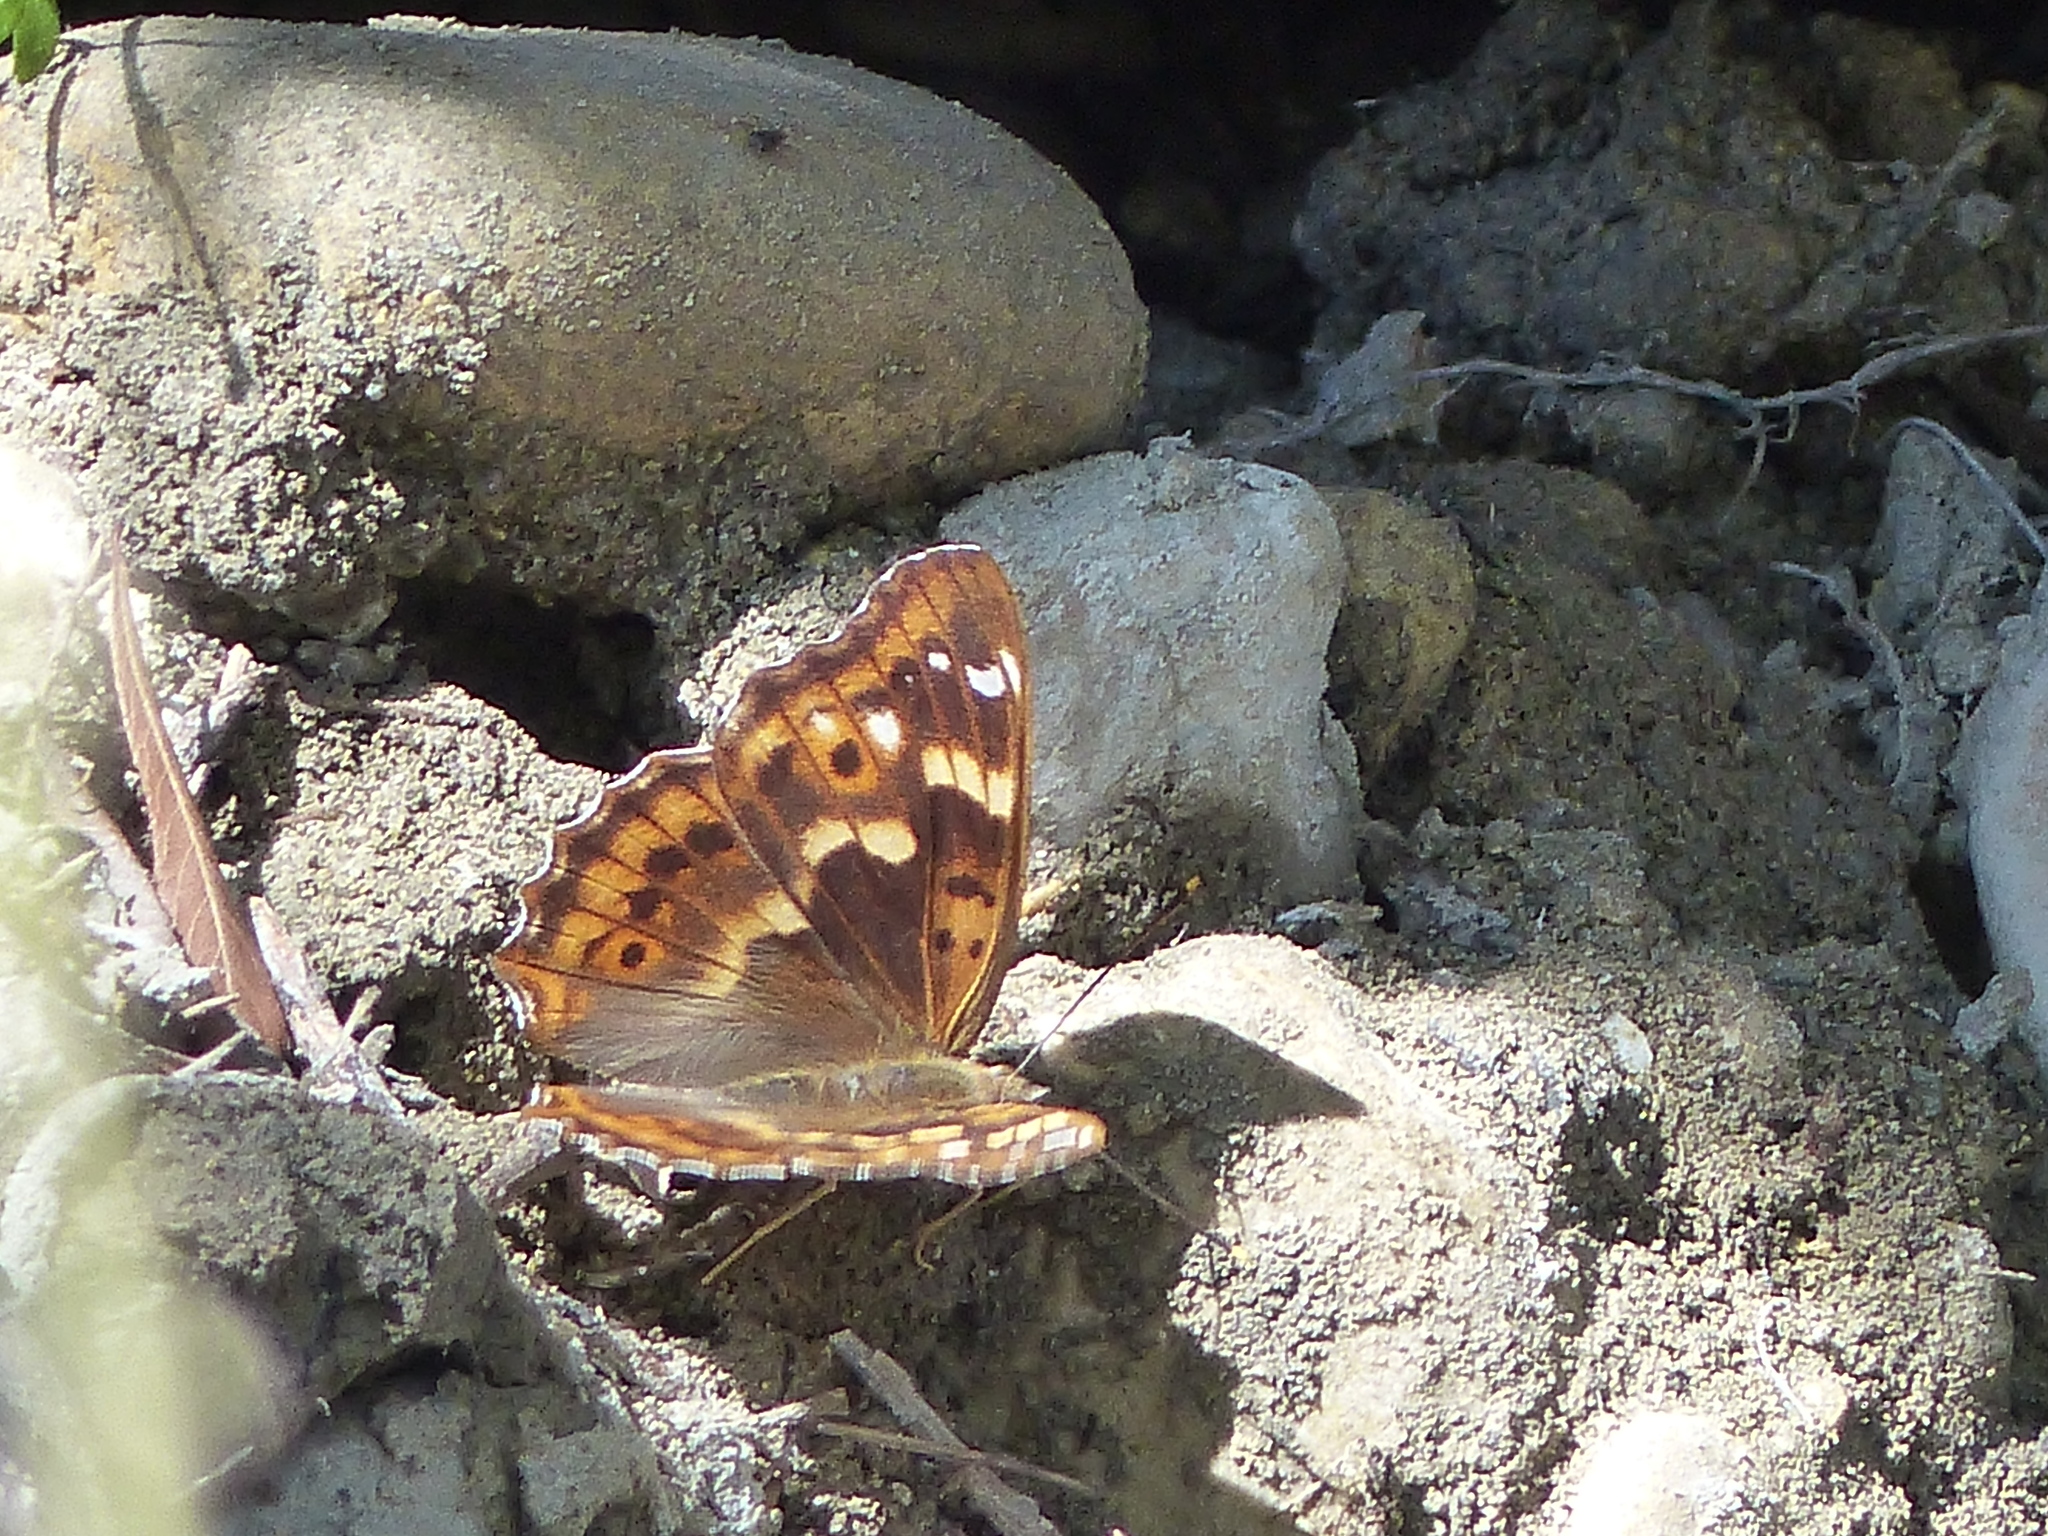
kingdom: Animalia
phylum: Arthropoda
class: Insecta
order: Lepidoptera
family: Nymphalidae
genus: Apatura
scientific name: Apatura ilia
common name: Lesser purple emperor
